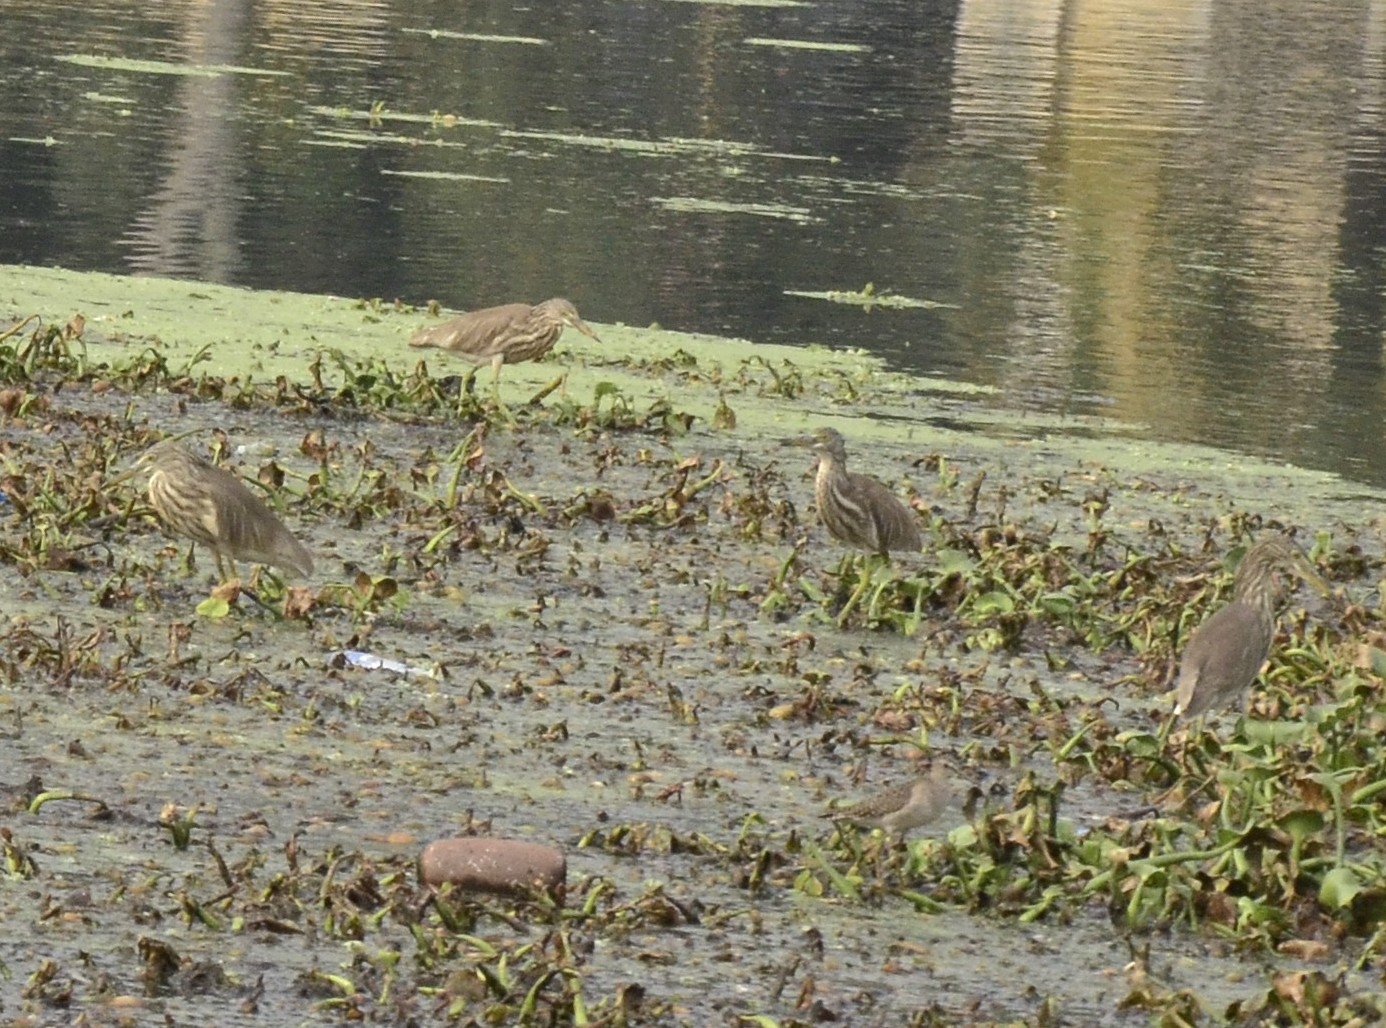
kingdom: Animalia
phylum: Chordata
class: Aves
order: Pelecaniformes
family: Ardeidae
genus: Ardeola
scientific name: Ardeola grayii
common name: Indian pond heron
